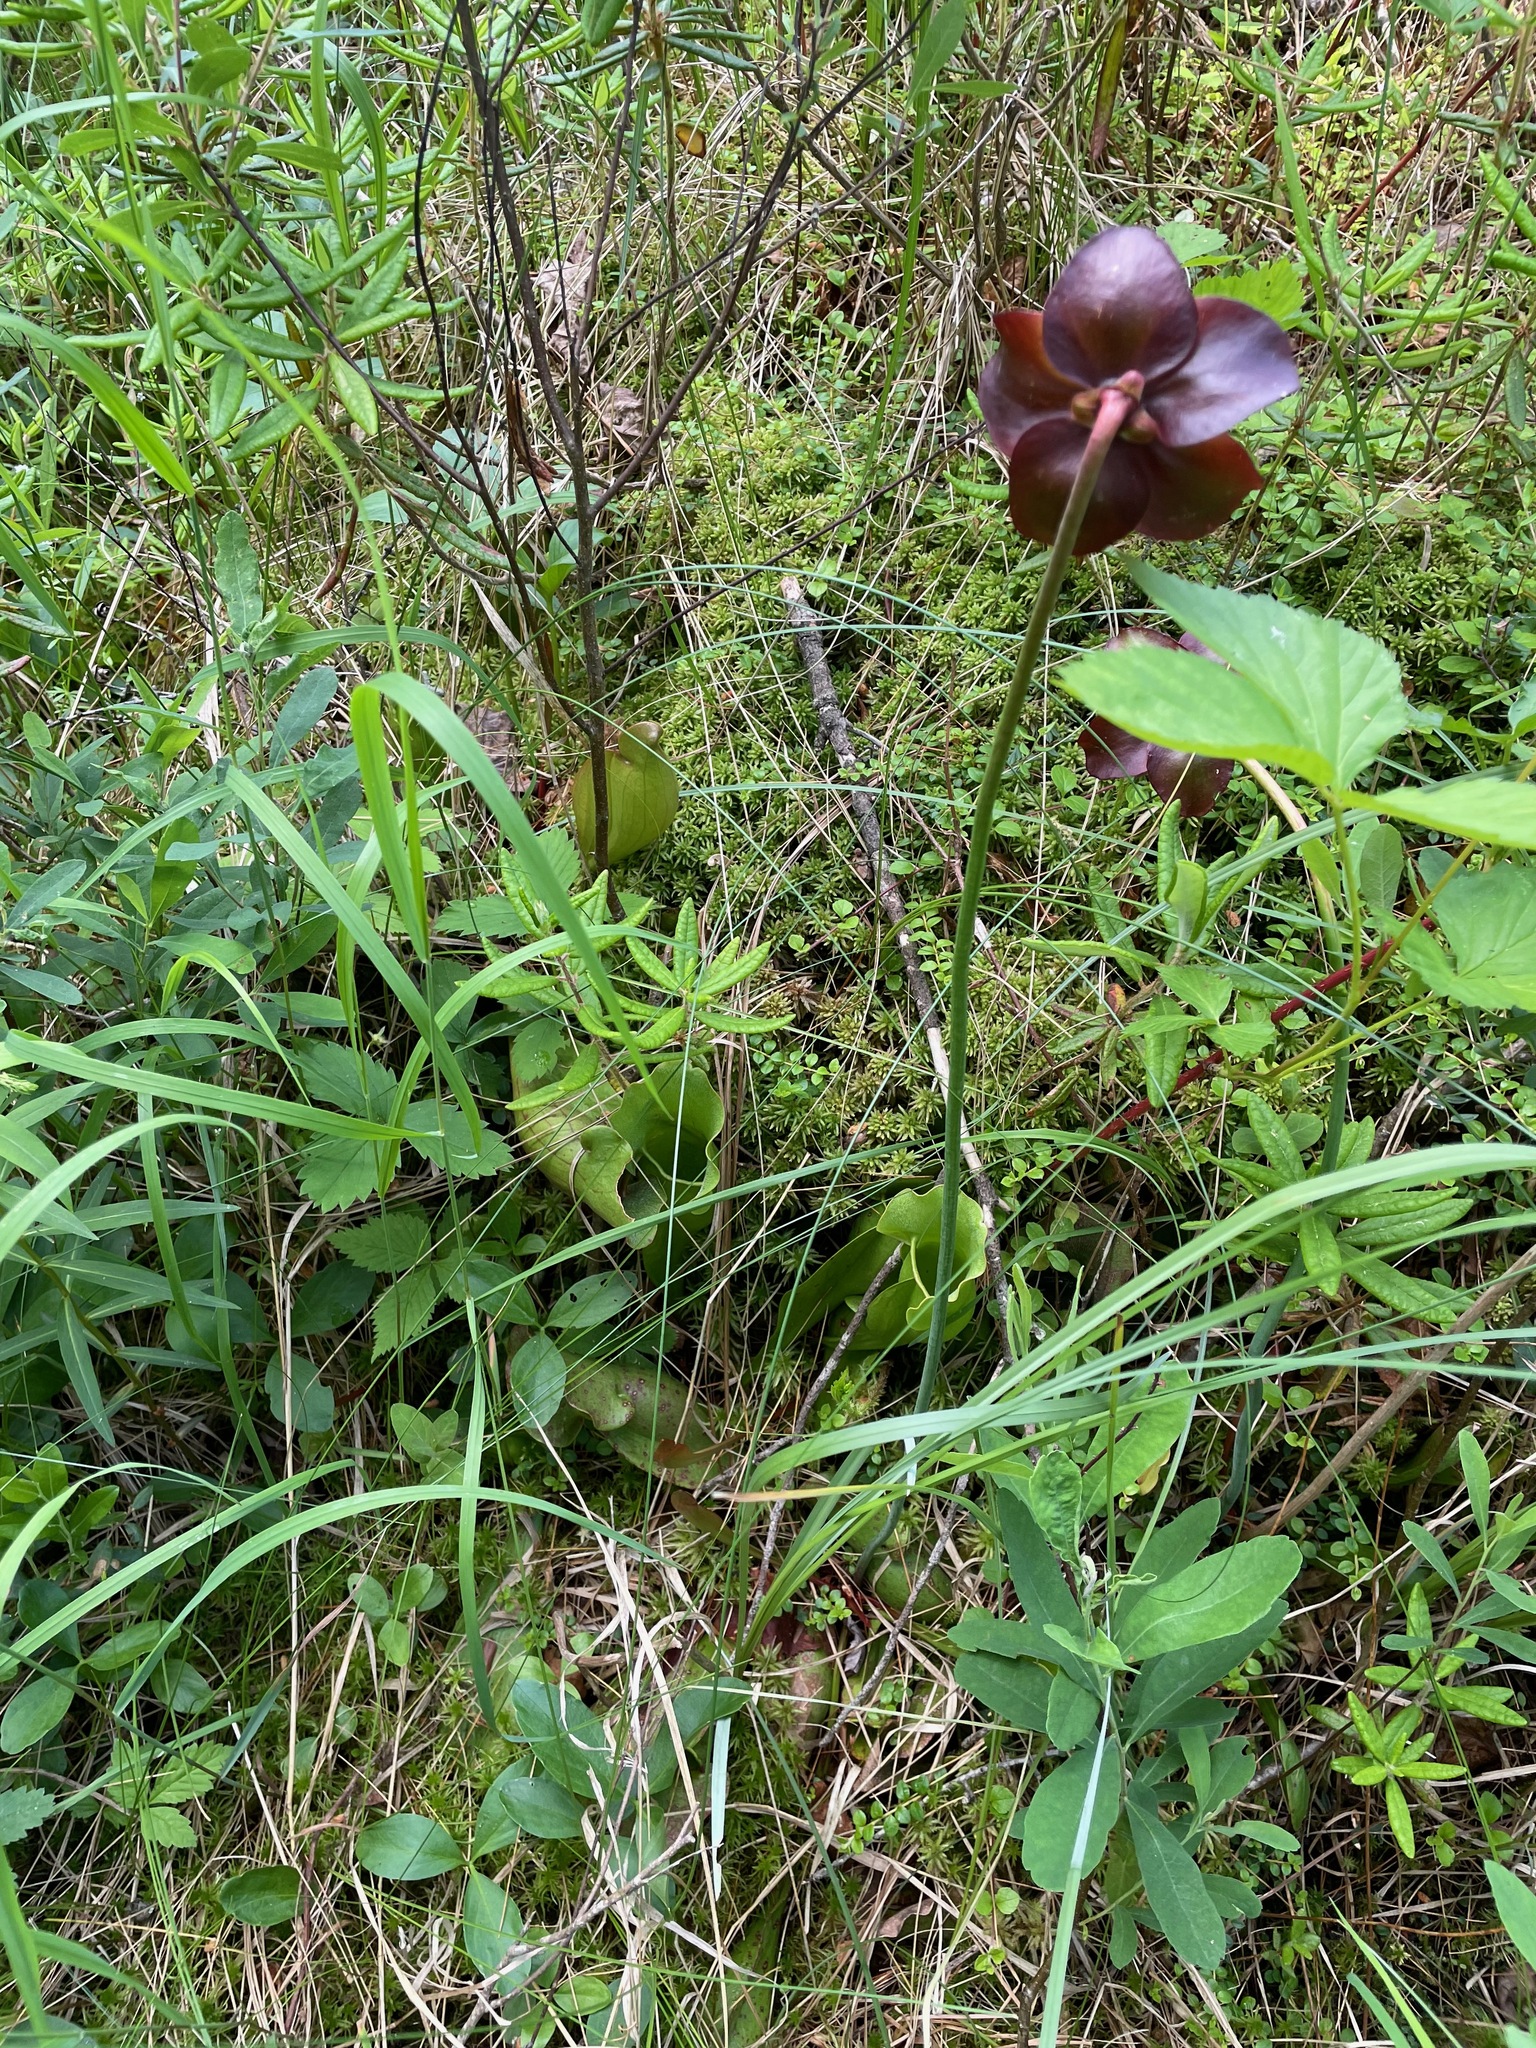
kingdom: Plantae
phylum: Tracheophyta
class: Magnoliopsida
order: Ericales
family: Sarraceniaceae
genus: Sarracenia
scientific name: Sarracenia purpurea
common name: Pitcherplant
